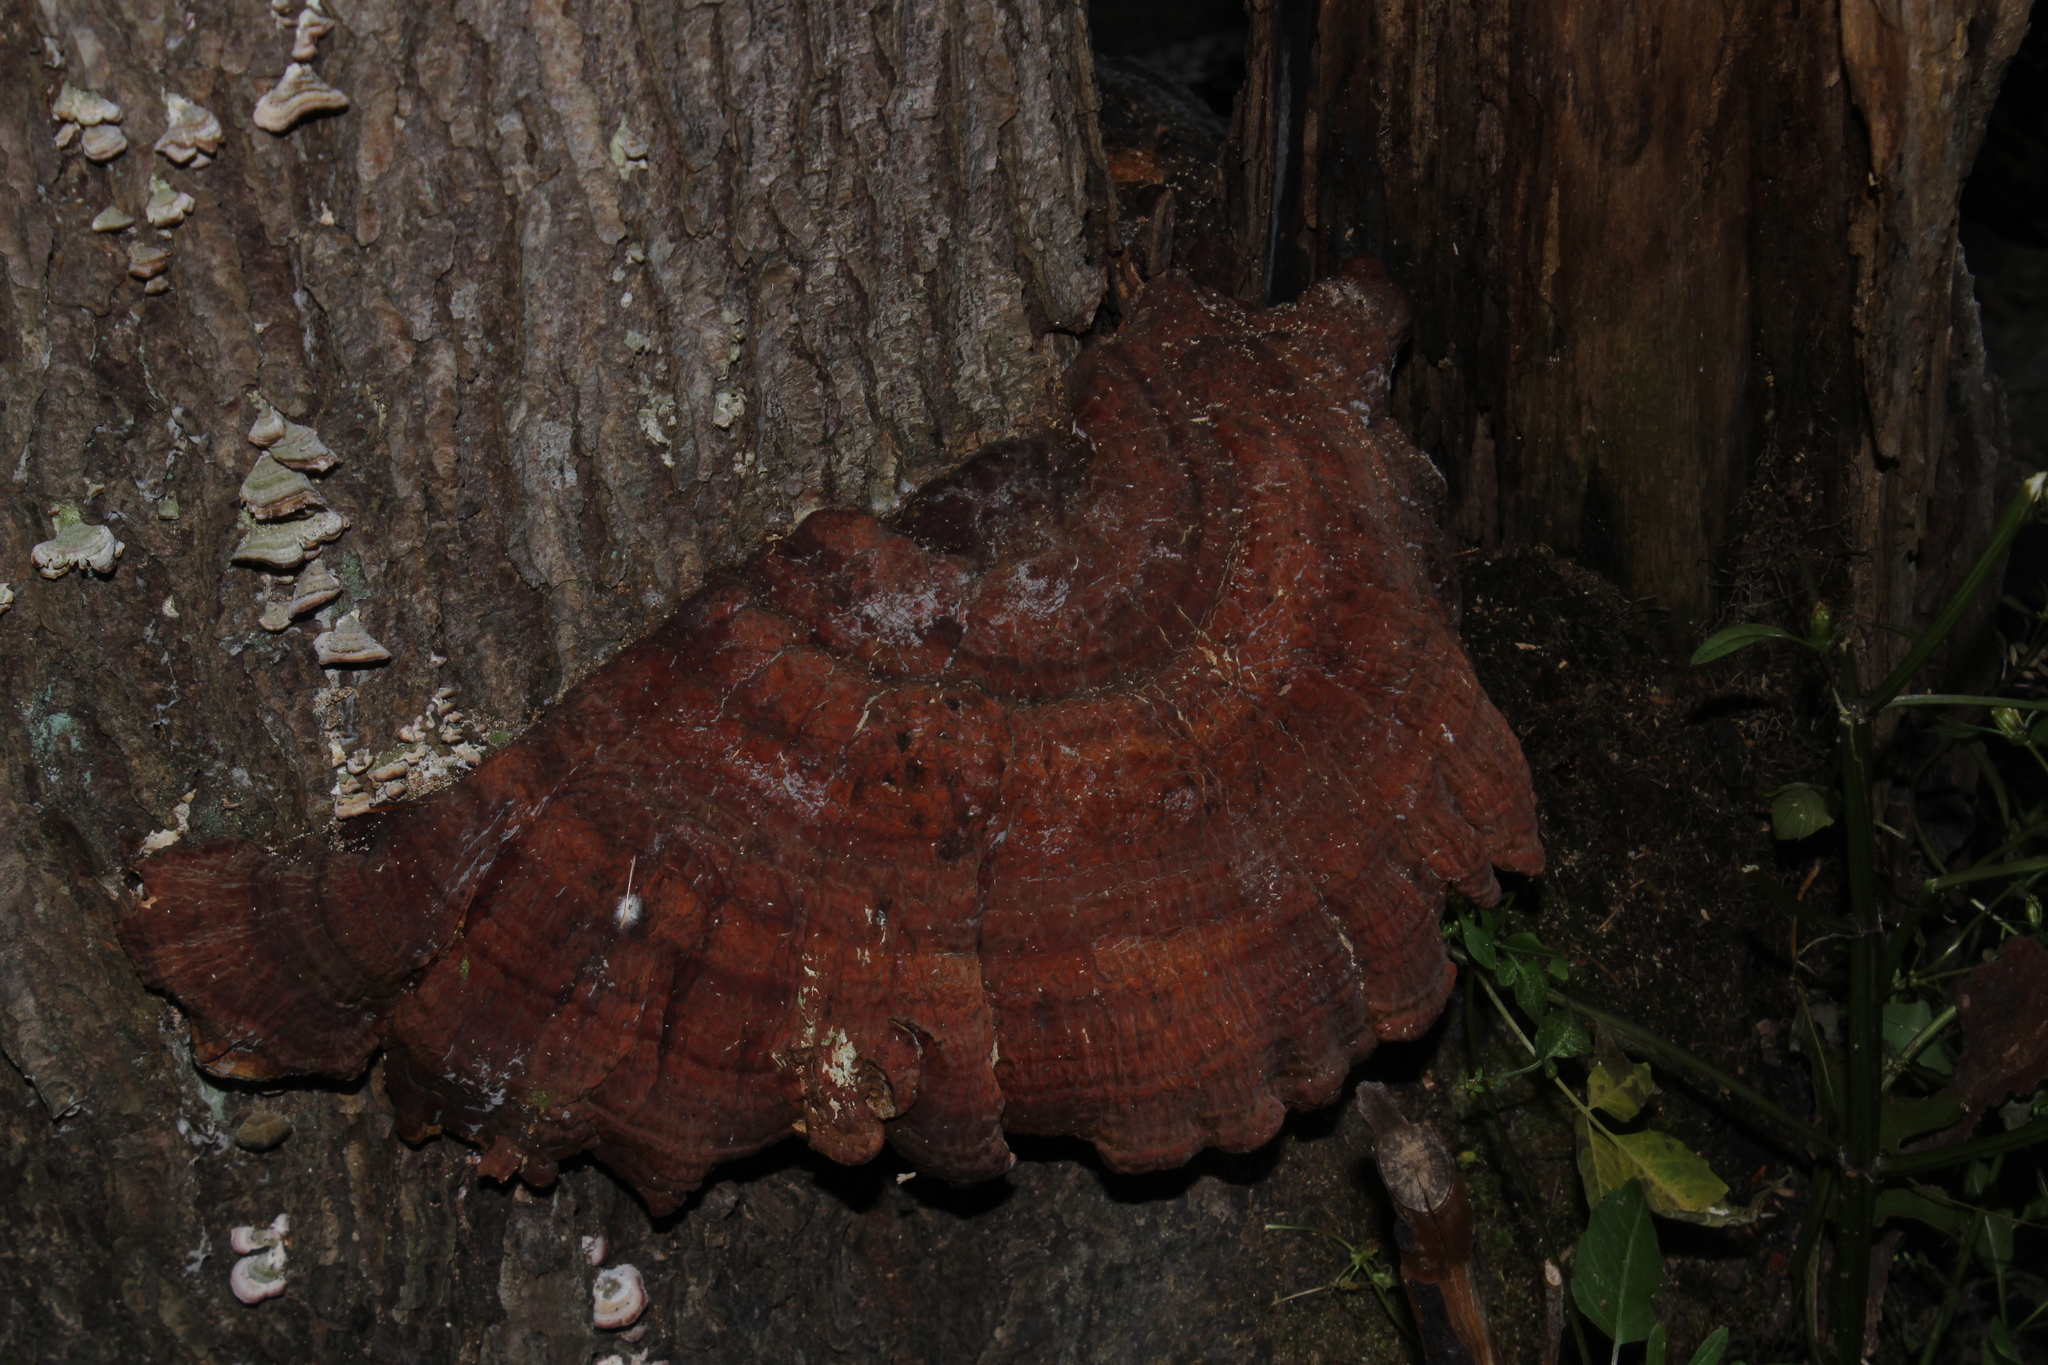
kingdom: Fungi
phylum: Basidiomycota
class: Agaricomycetes
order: Polyporales
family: Polyporaceae
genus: Ganoderma
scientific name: Ganoderma tsugae
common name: Hemlock varnish shelf
